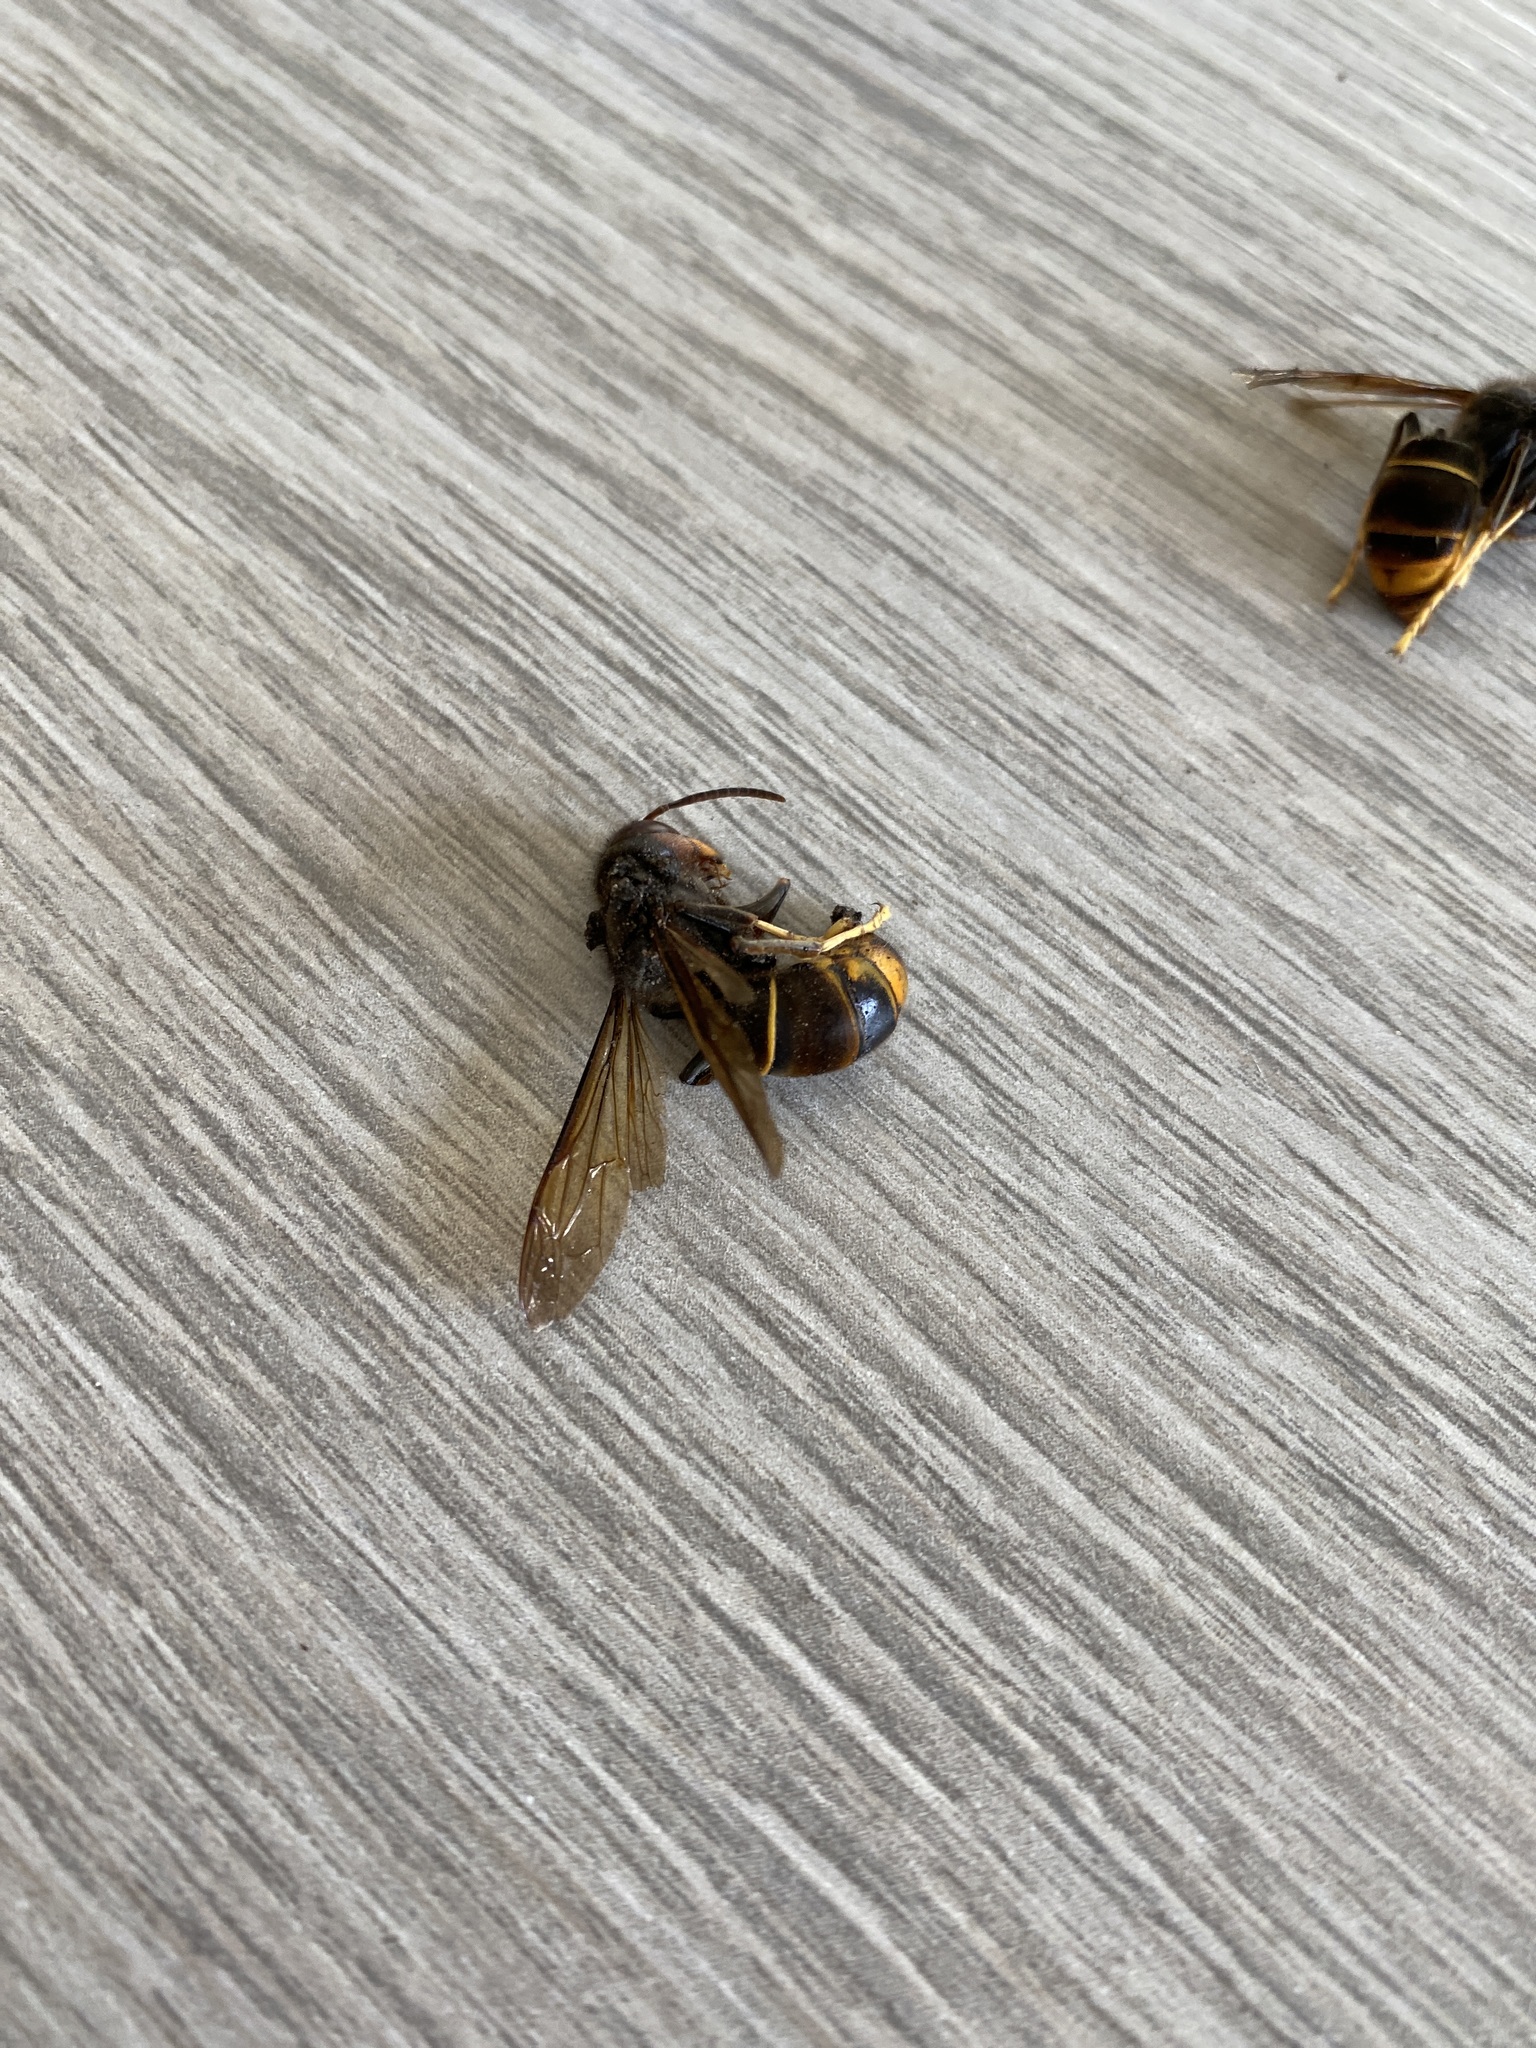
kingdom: Animalia
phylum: Arthropoda
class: Insecta
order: Hymenoptera
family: Vespidae
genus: Vespa
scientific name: Vespa velutina
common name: Asian hornet
